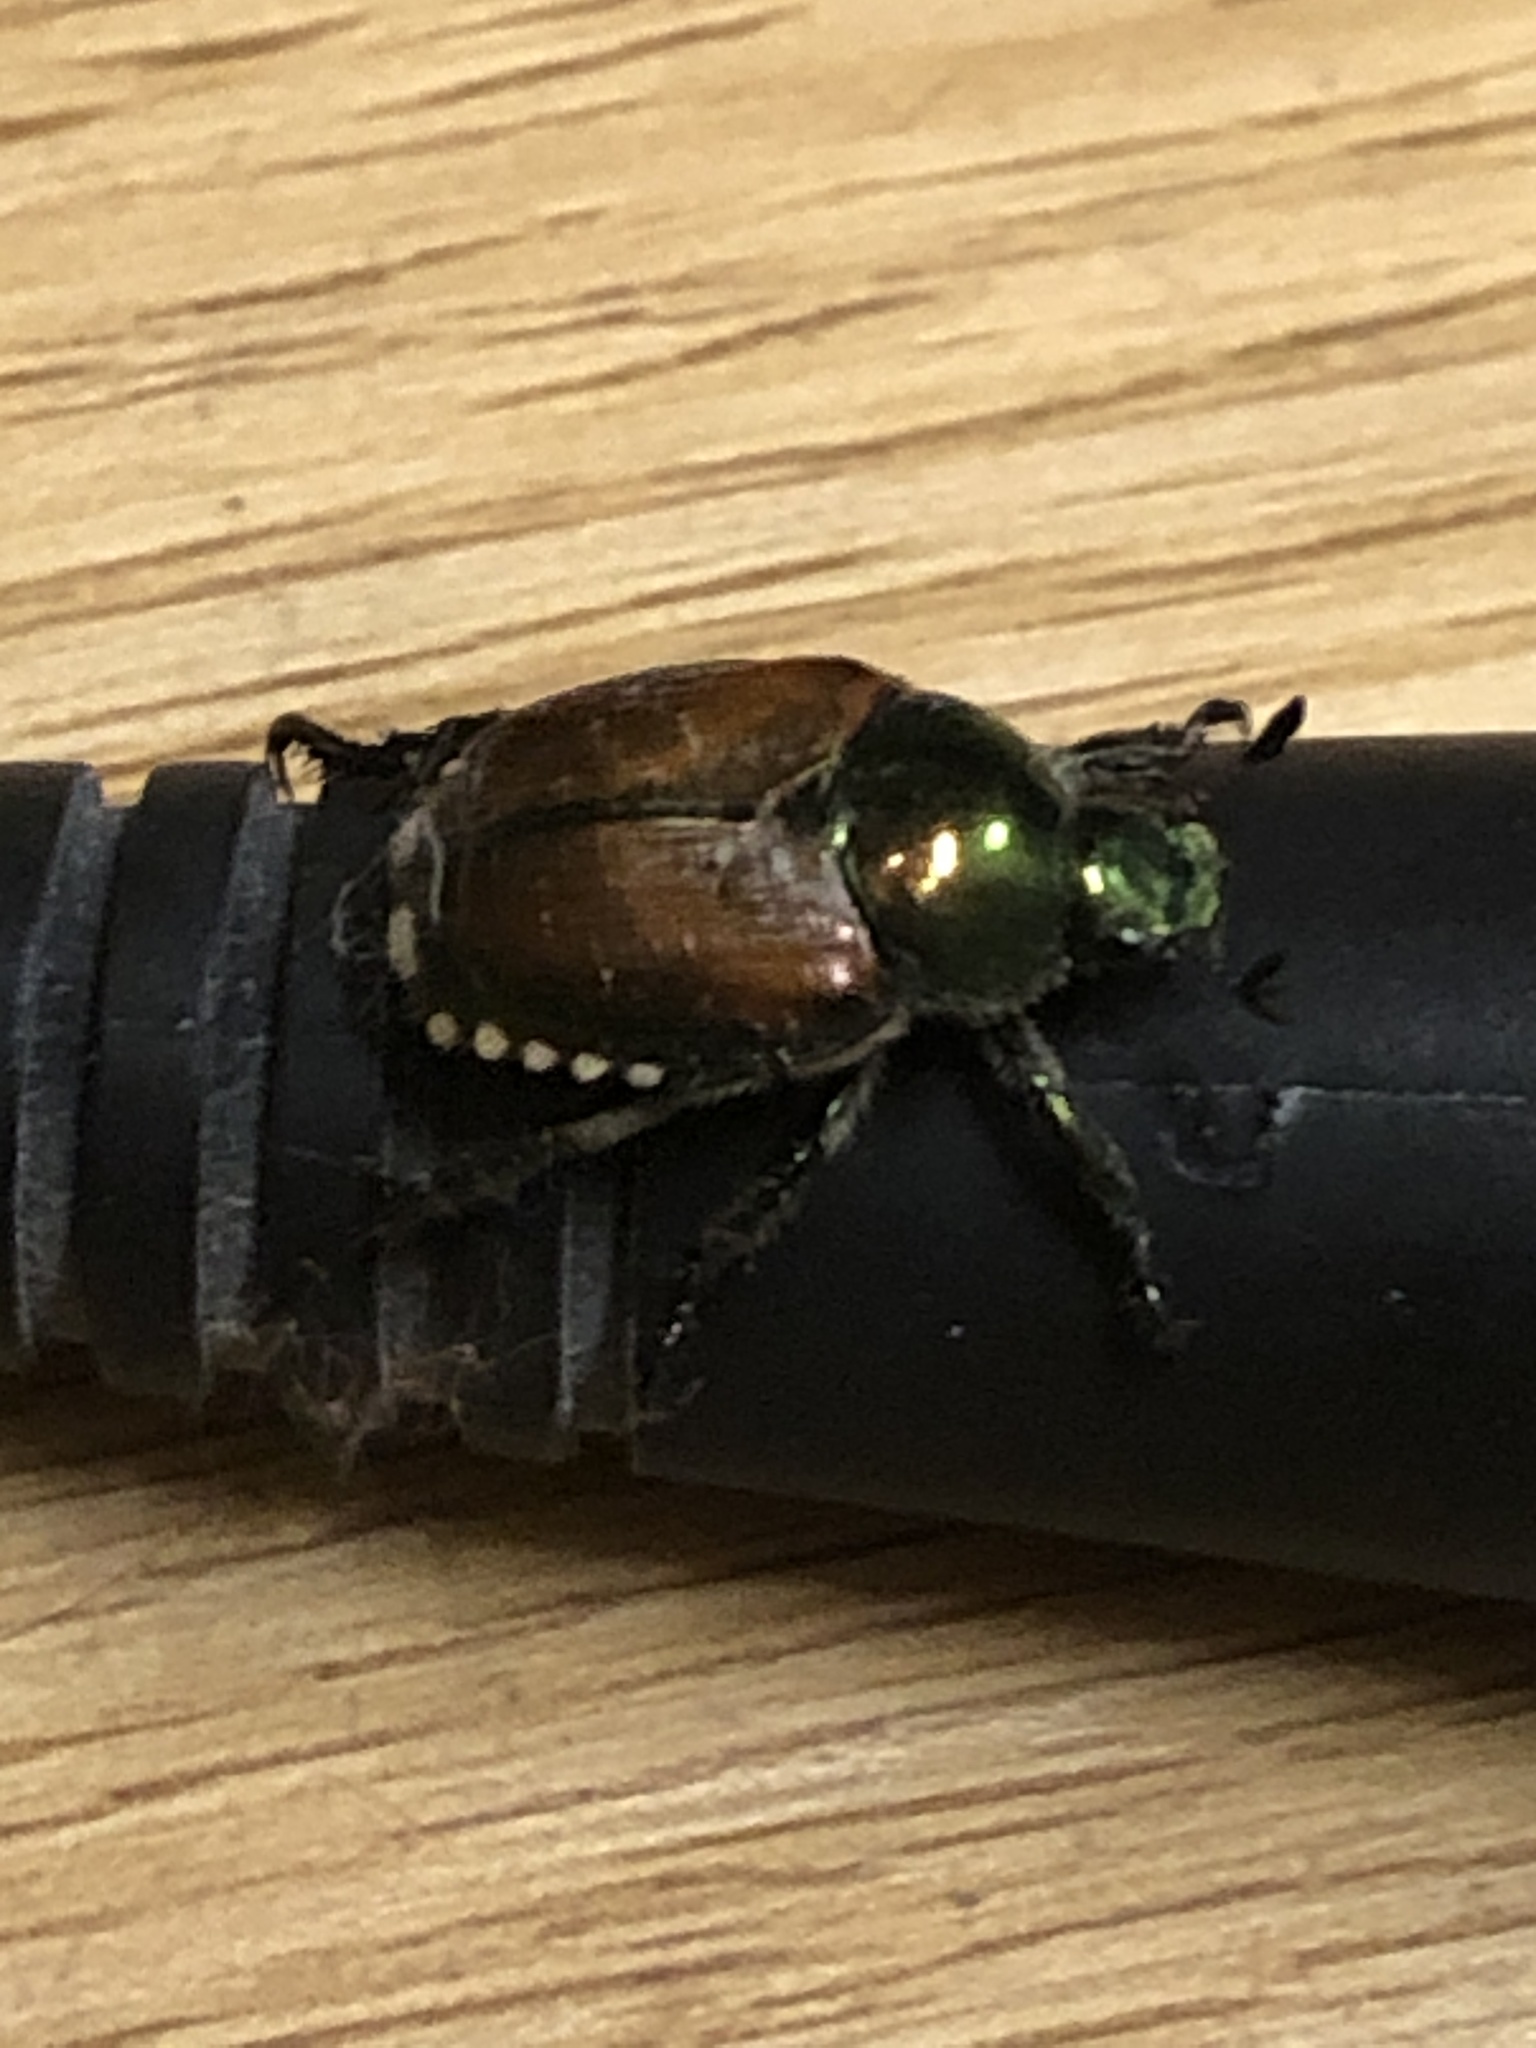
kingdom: Animalia
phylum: Arthropoda
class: Insecta
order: Coleoptera
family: Scarabaeidae
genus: Popillia
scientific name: Popillia japonica
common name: Japanese beetle
